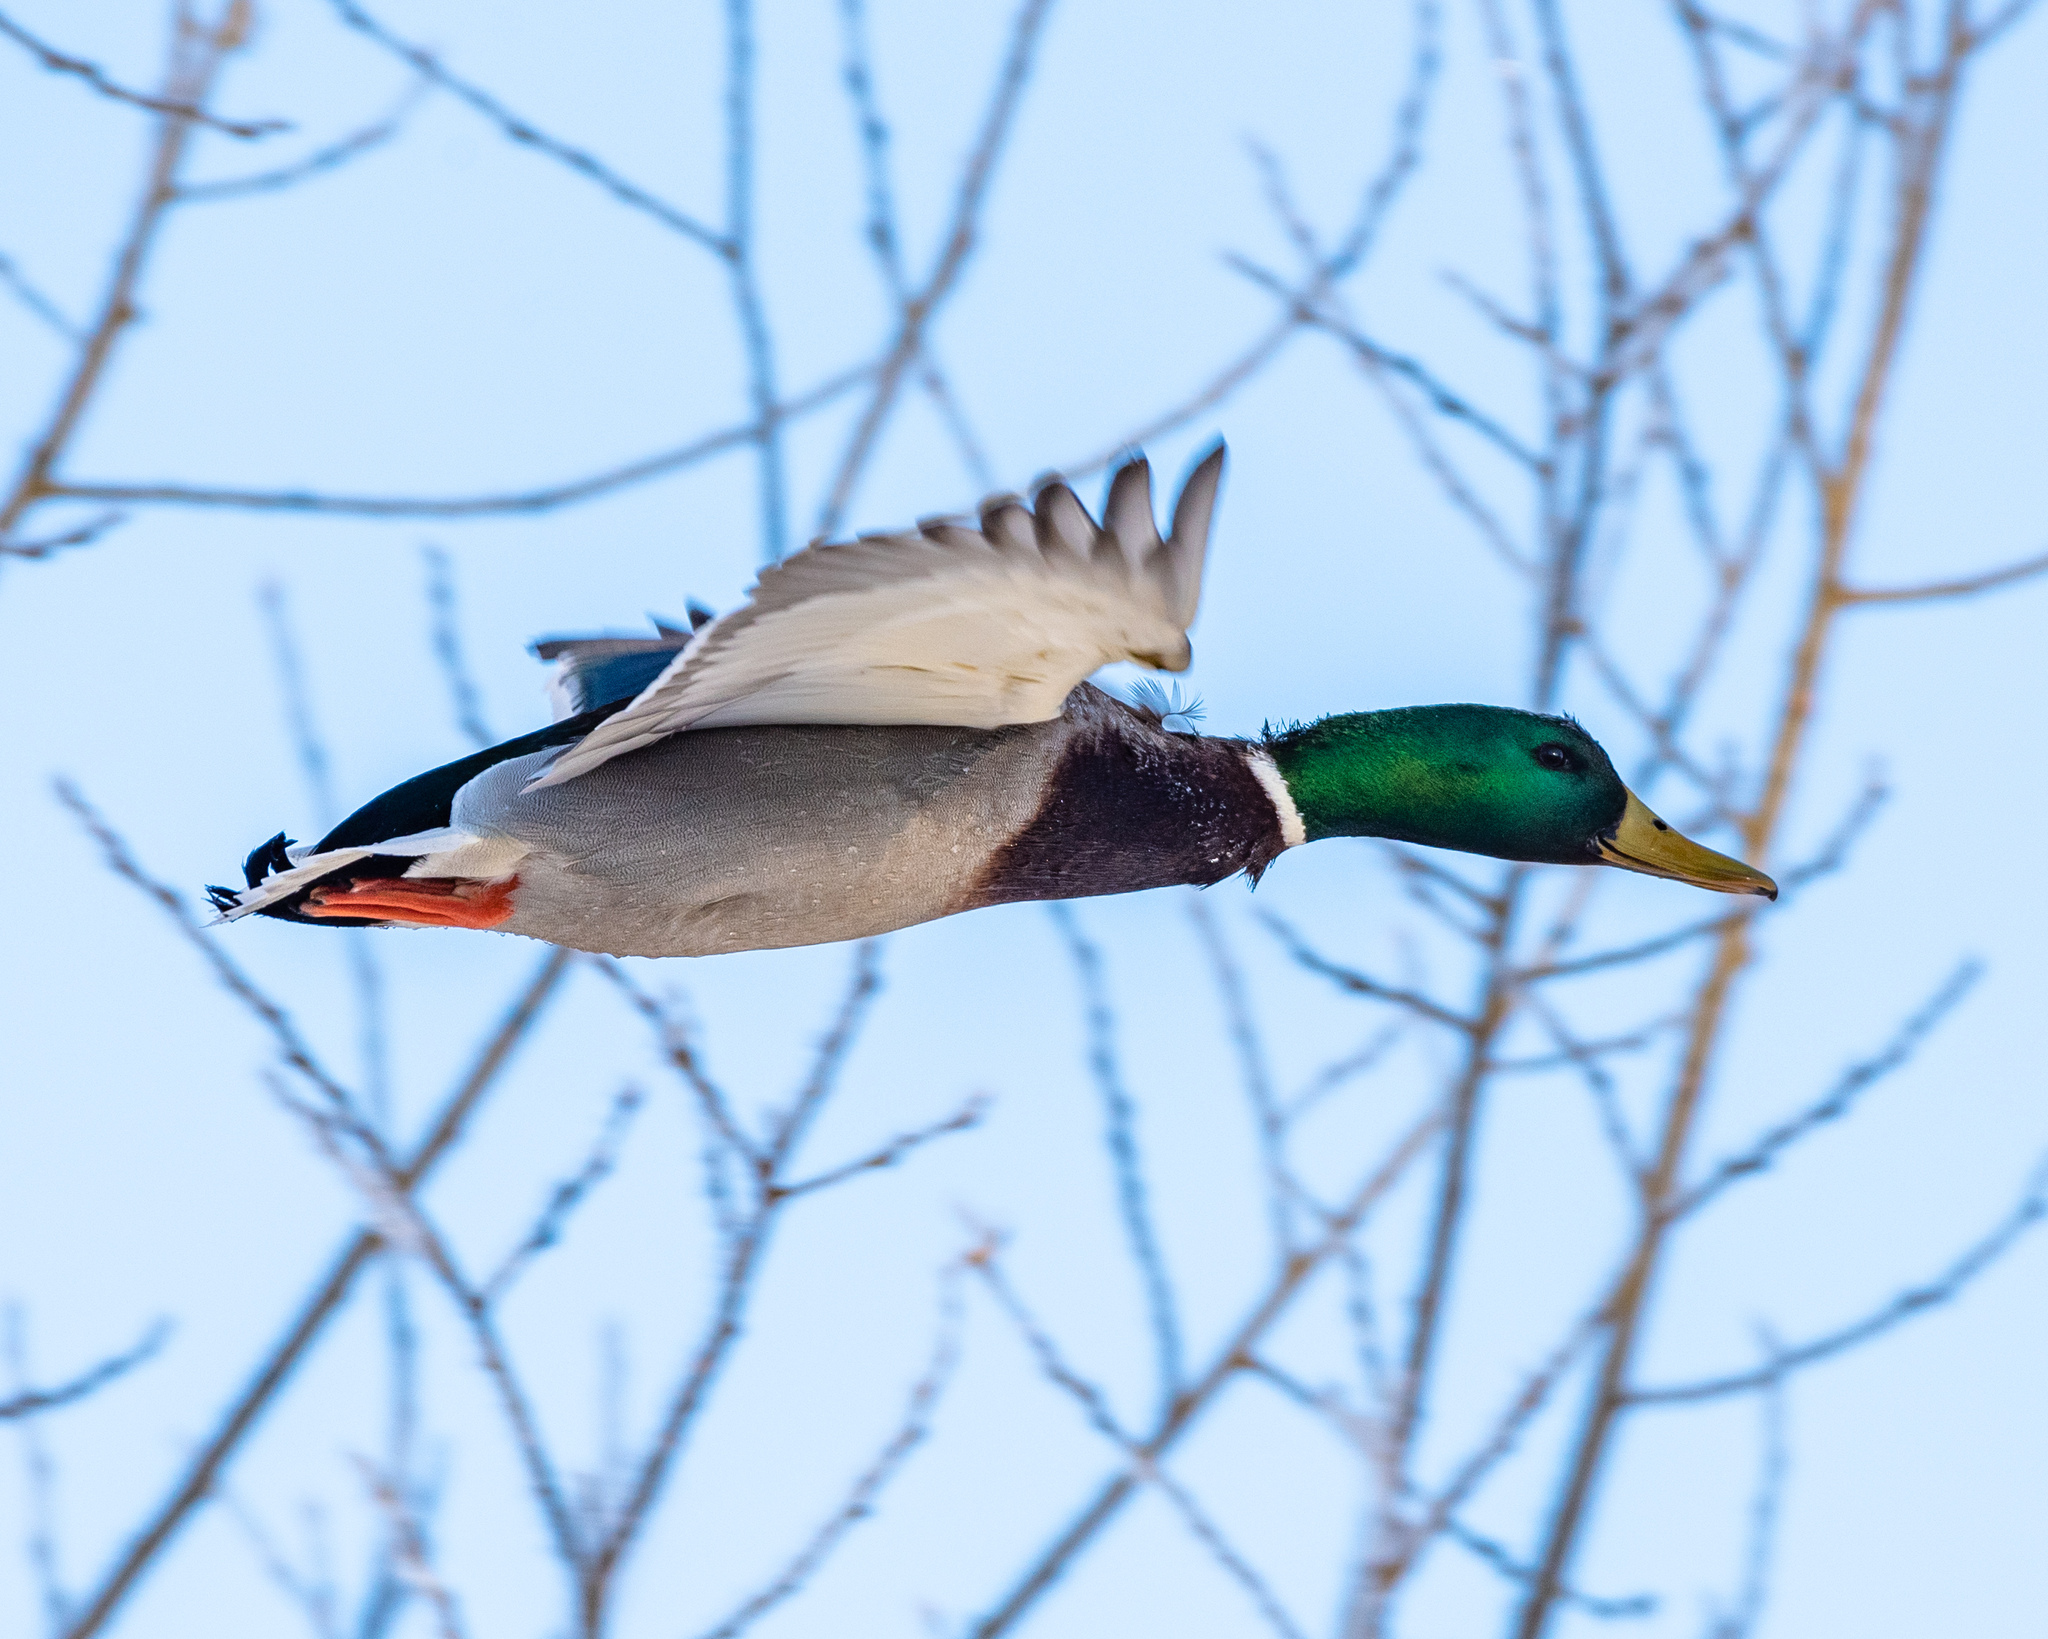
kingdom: Animalia
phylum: Chordata
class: Aves
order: Anseriformes
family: Anatidae
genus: Anas
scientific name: Anas platyrhynchos
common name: Mallard
